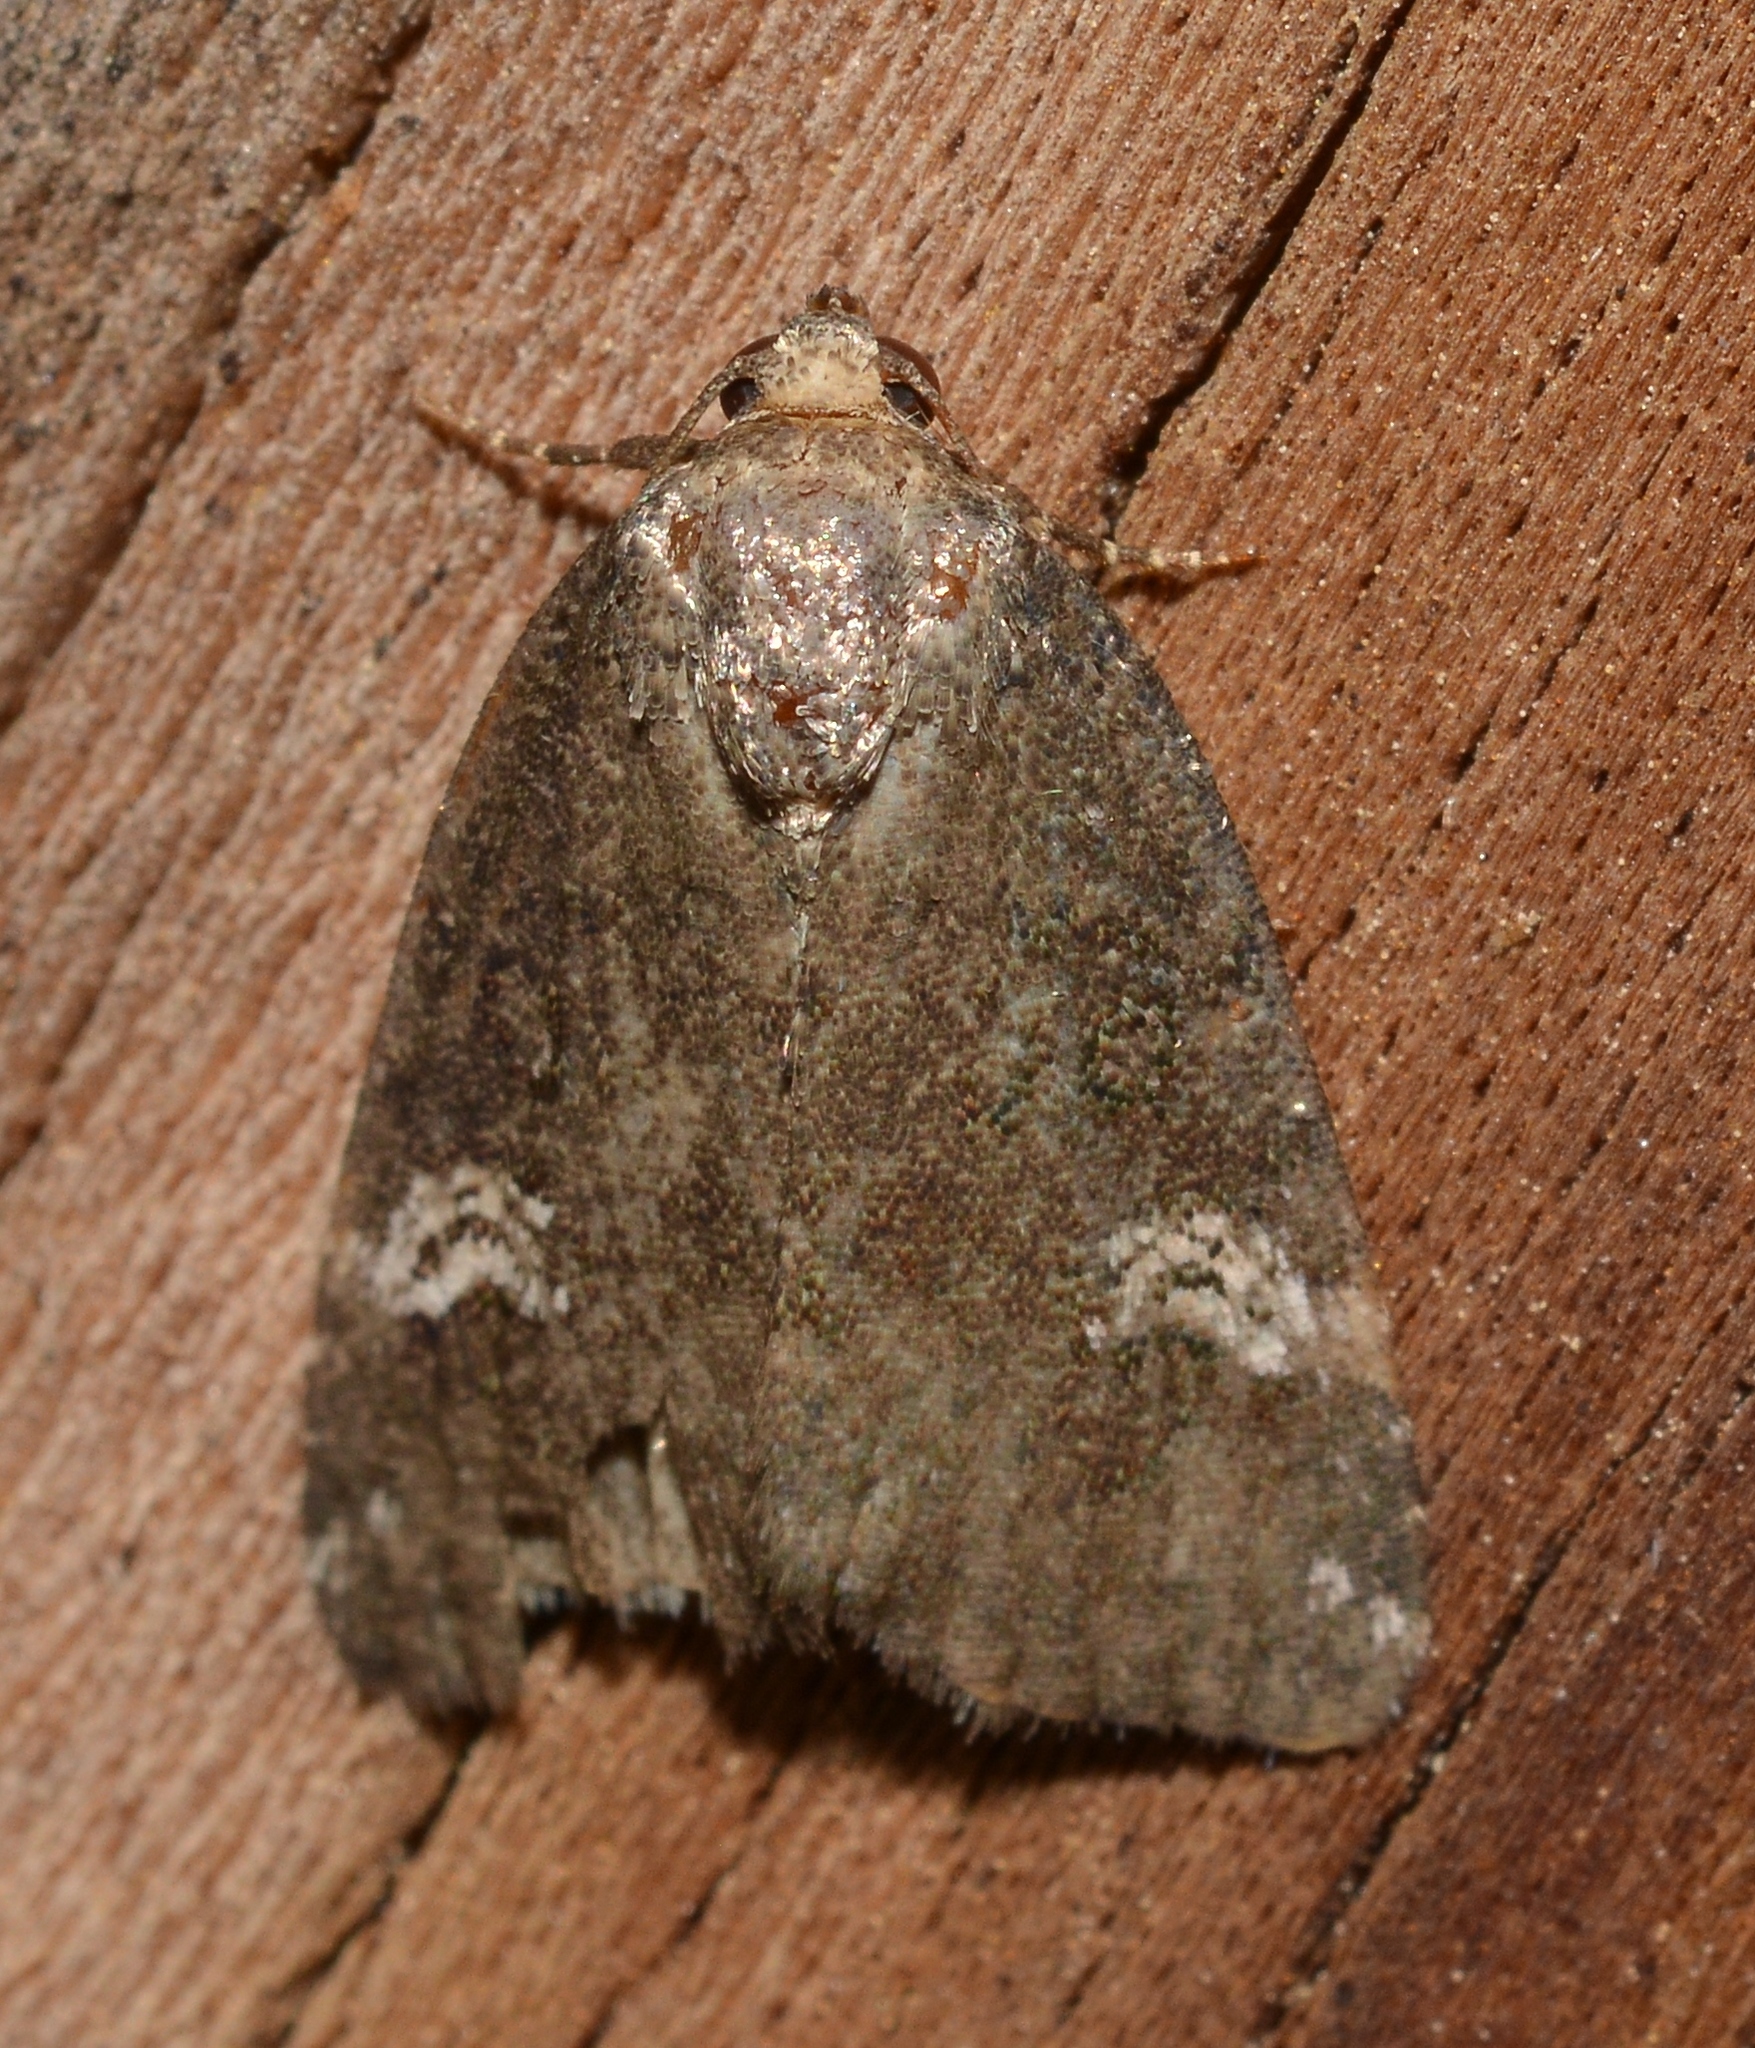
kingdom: Animalia
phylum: Arthropoda
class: Insecta
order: Lepidoptera
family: Noctuidae
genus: Anterastria
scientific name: Anterastria teratophora
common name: Gray marvel moth
